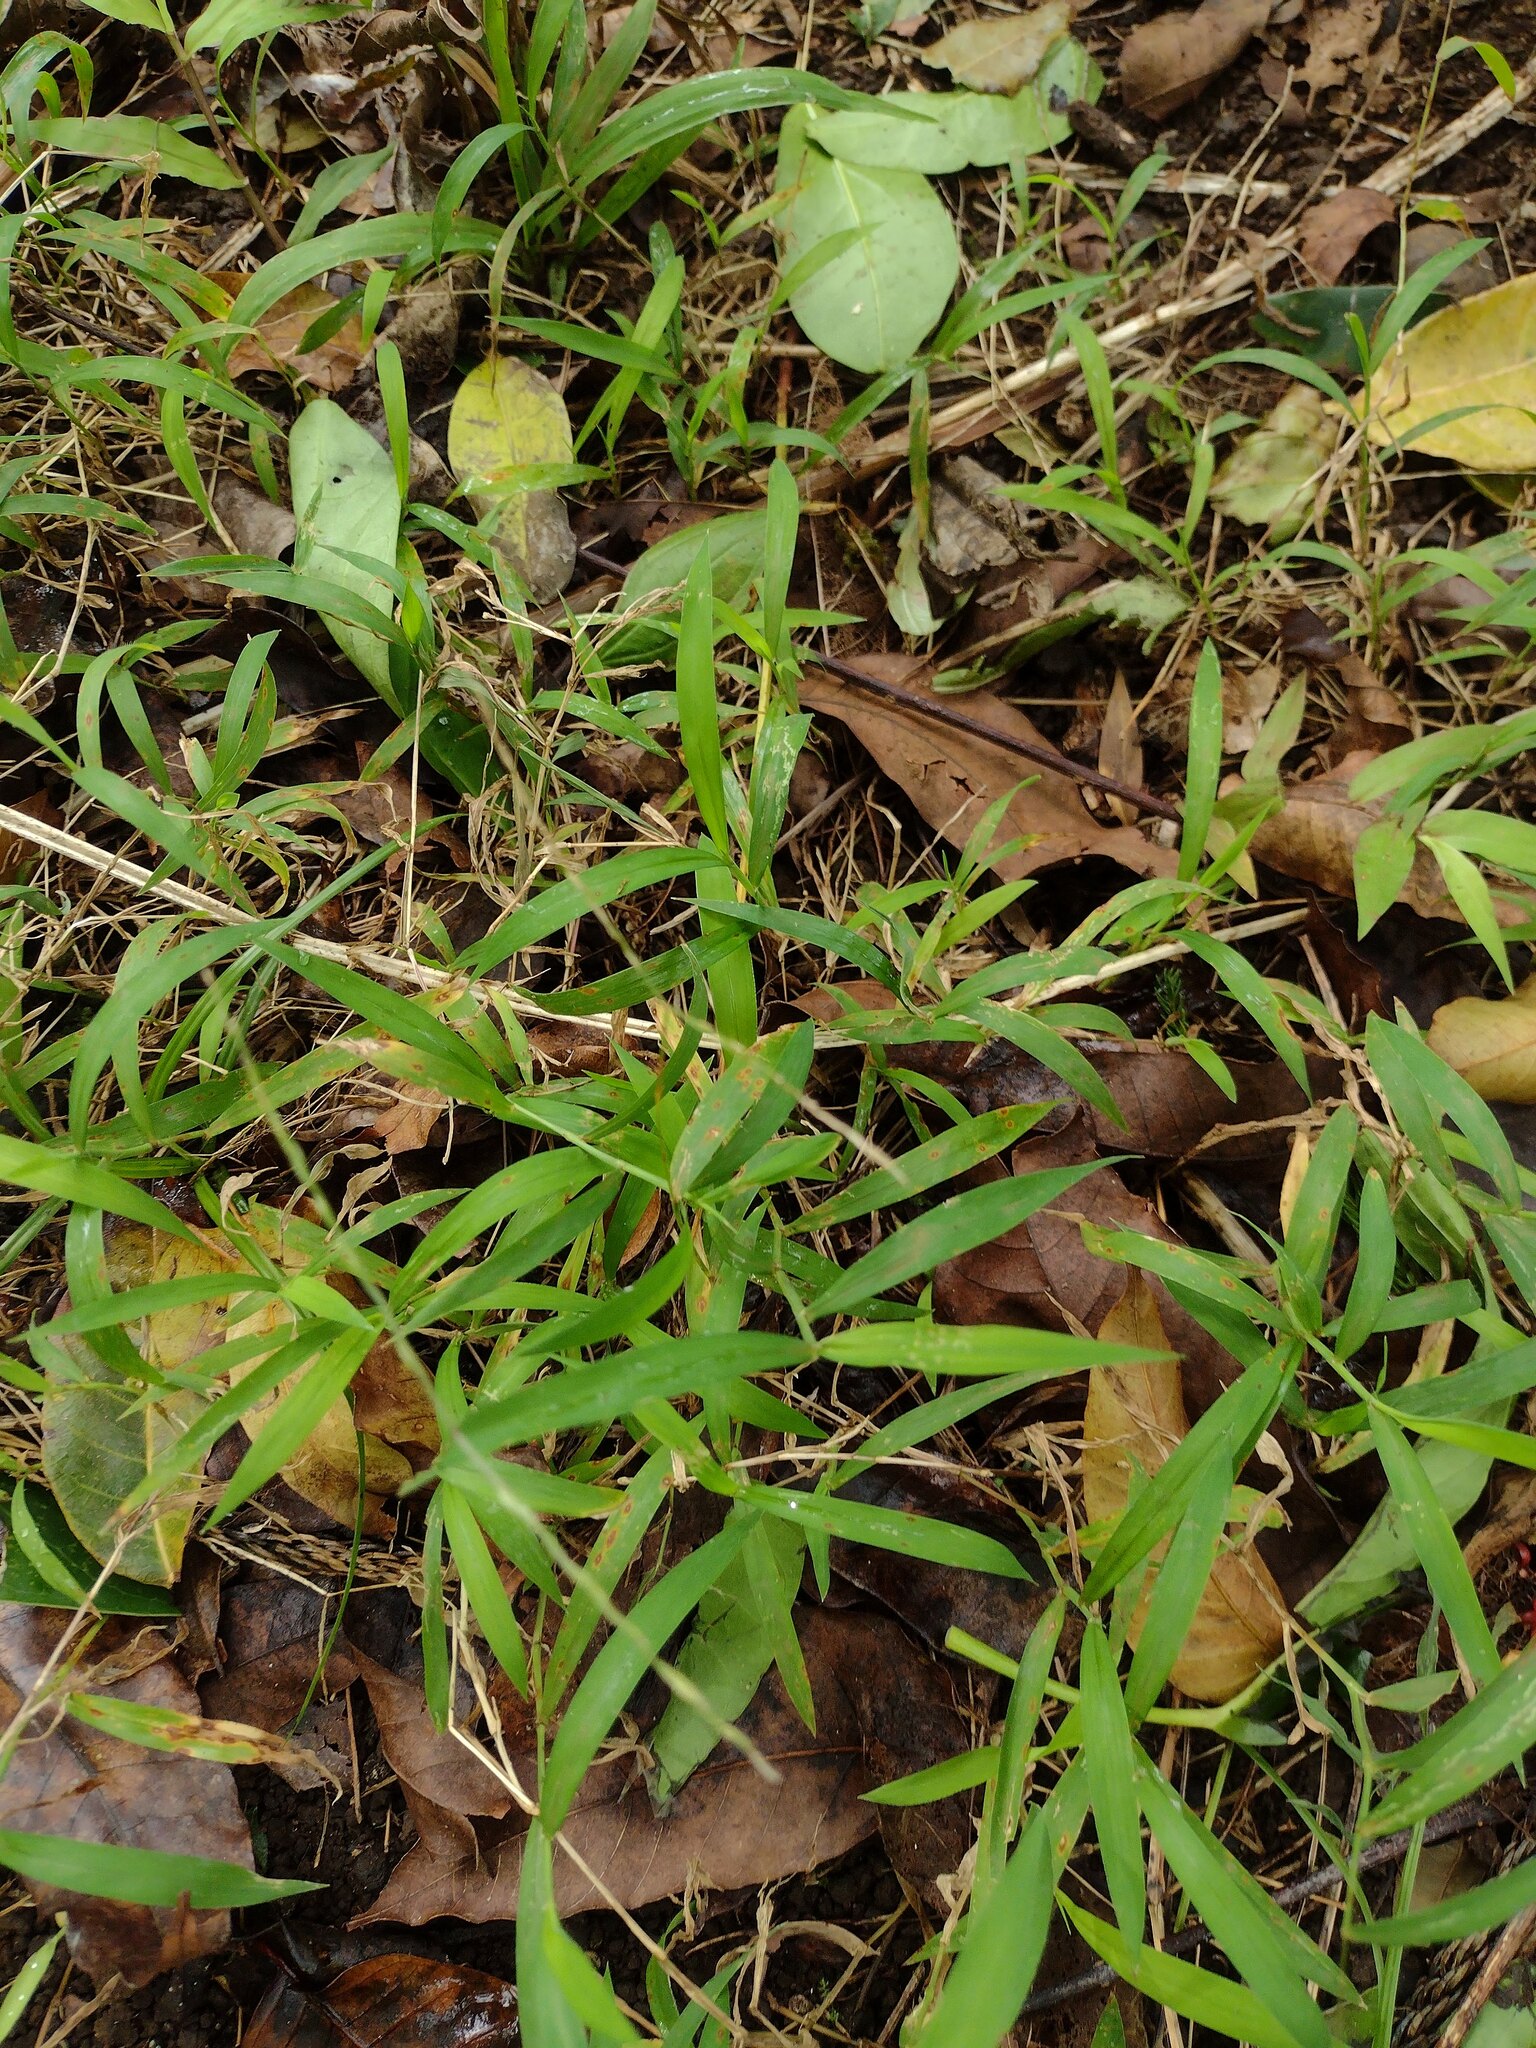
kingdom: Plantae
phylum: Tracheophyta
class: Liliopsida
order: Poales
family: Poaceae
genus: Digitaria
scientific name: Digitaria radicosa
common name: Trailing crabgrass
